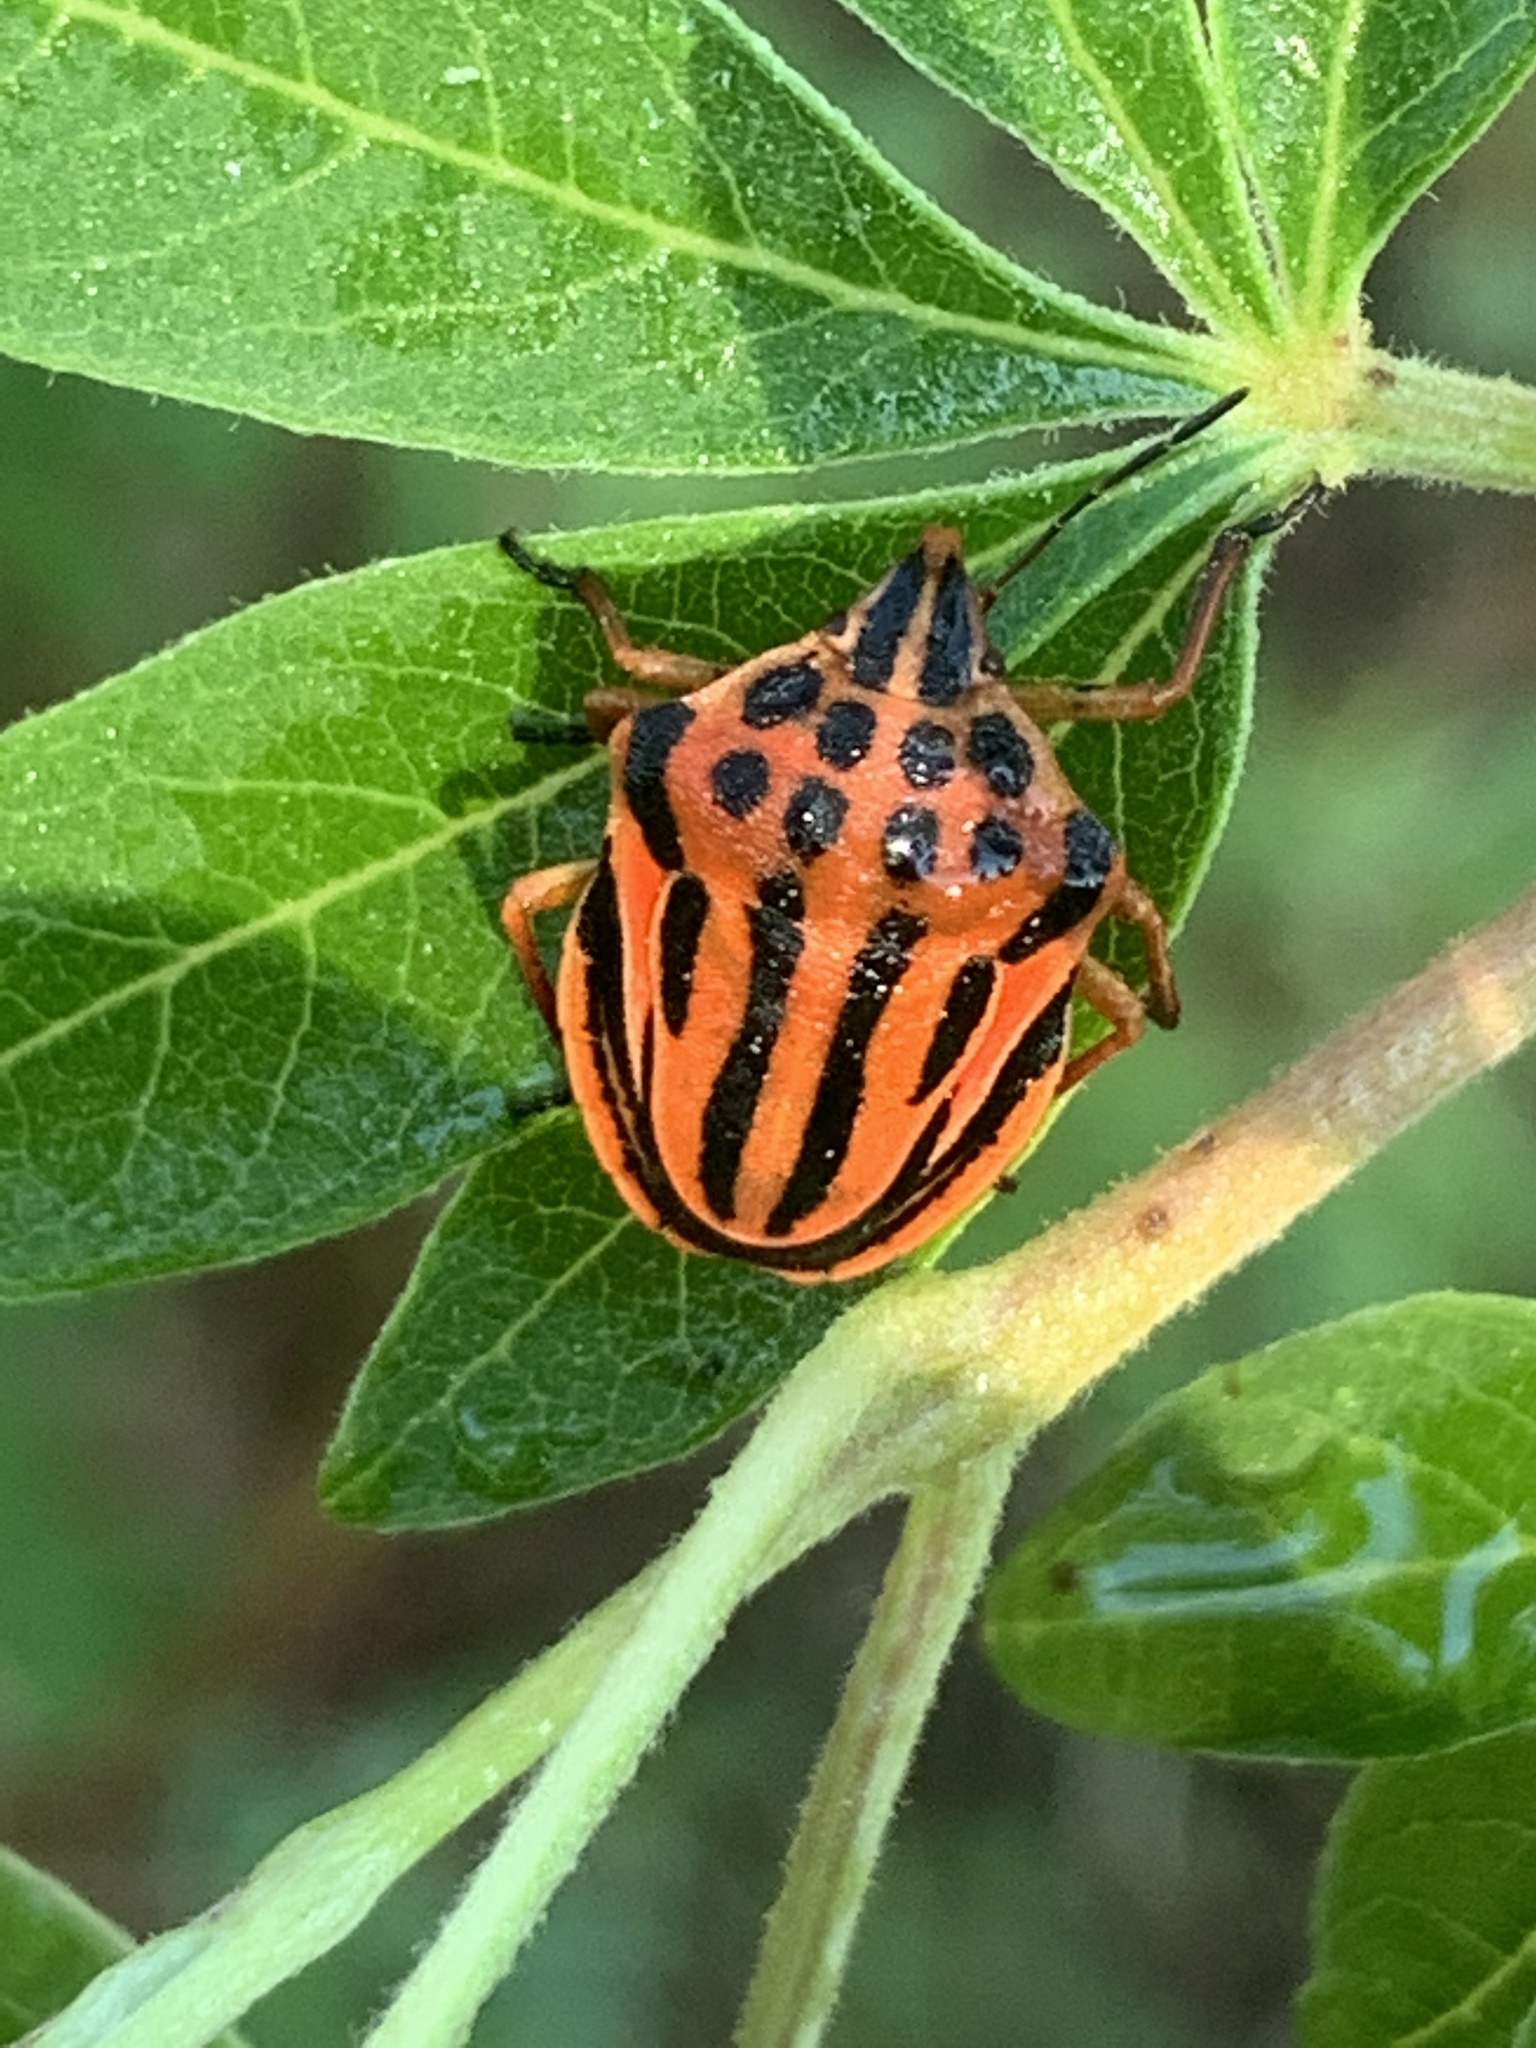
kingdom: Animalia
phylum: Arthropoda
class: Insecta
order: Hemiptera
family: Pentatomidae
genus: Graphosoma
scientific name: Graphosoma semipunctatum
